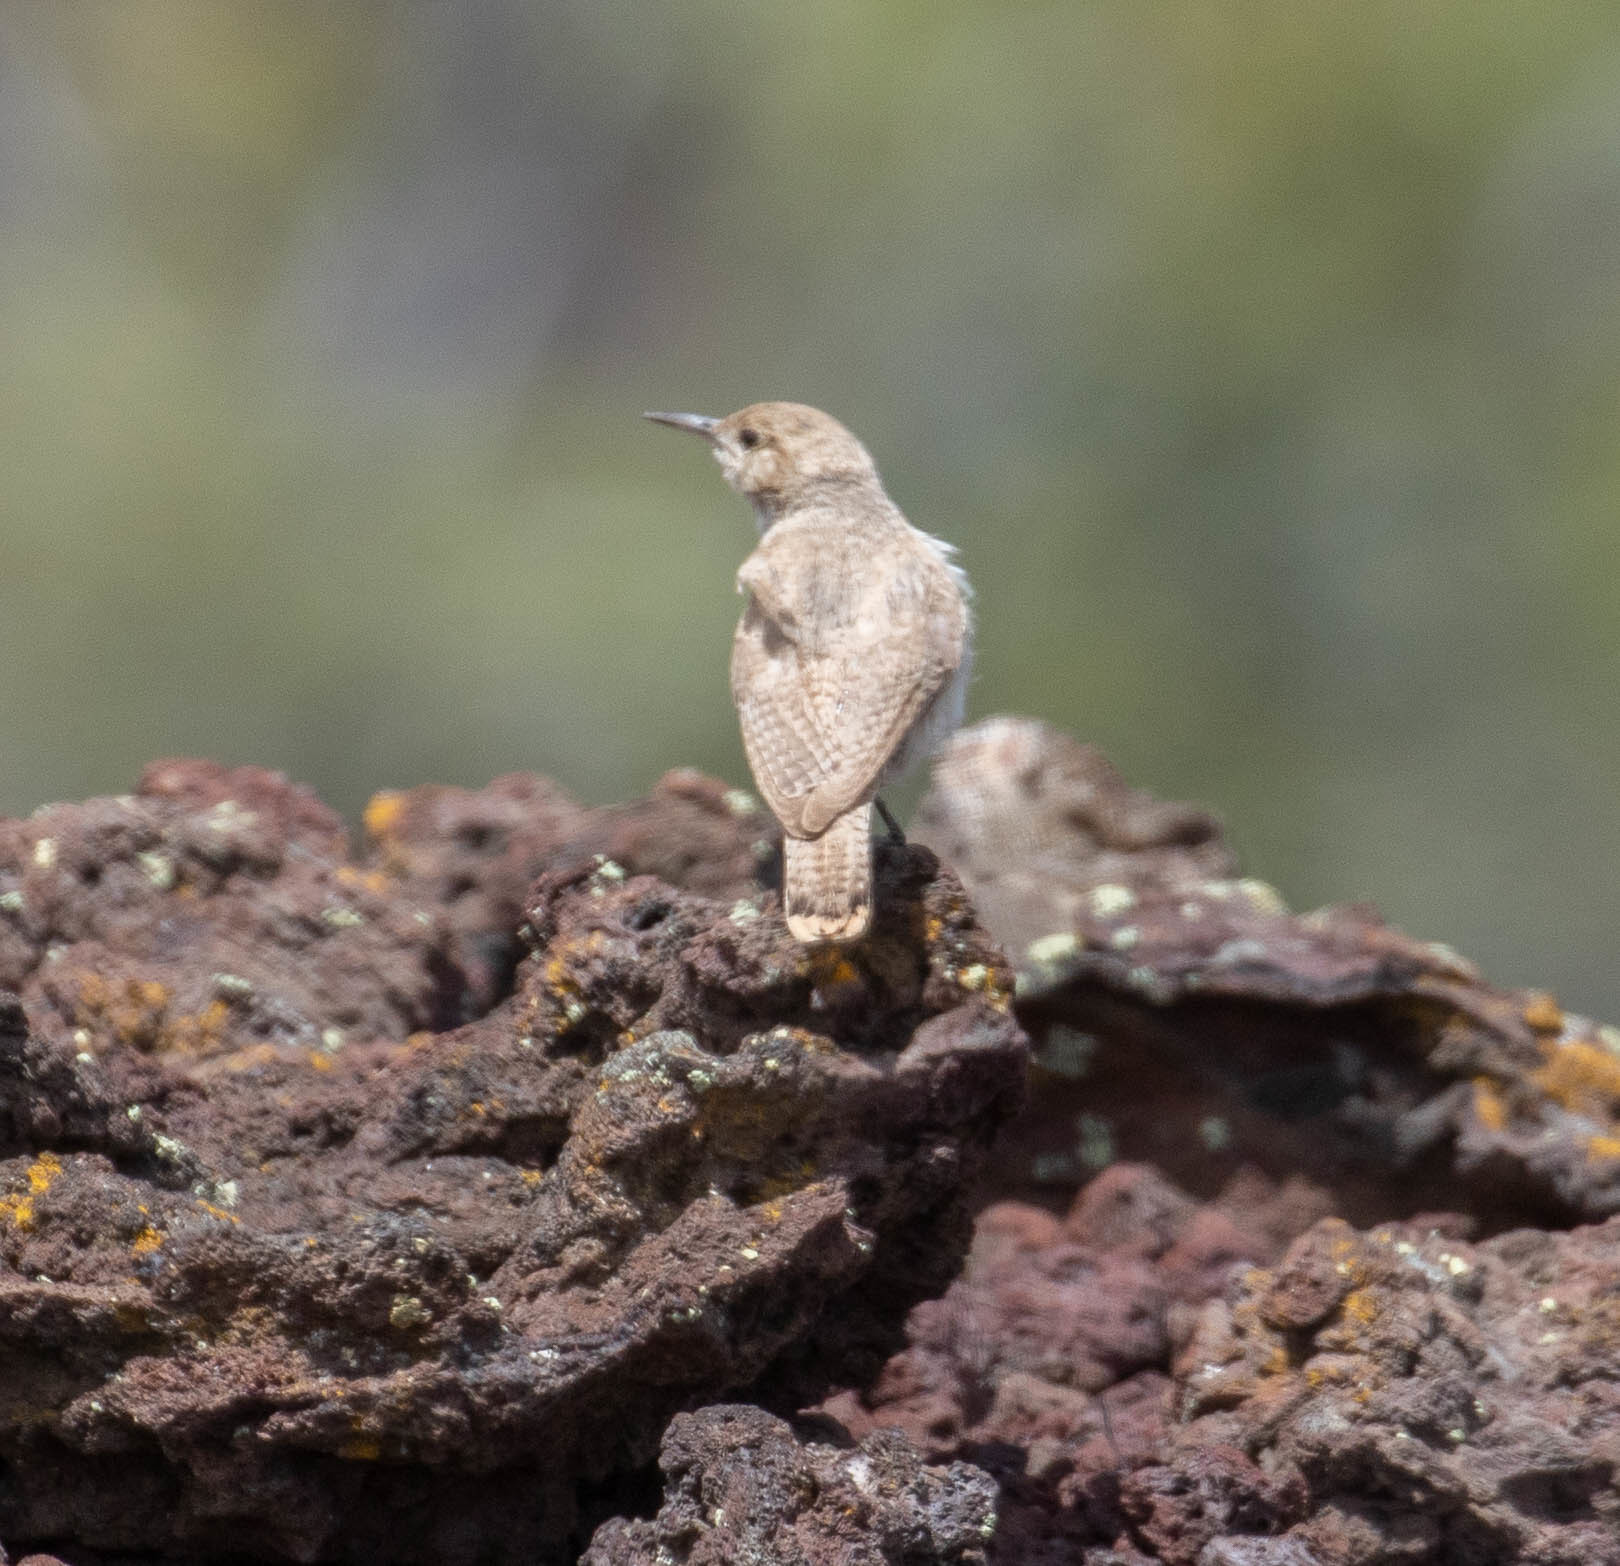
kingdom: Animalia
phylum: Chordata
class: Aves
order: Passeriformes
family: Troglodytidae
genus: Salpinctes
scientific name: Salpinctes obsoletus
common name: Rock wren
